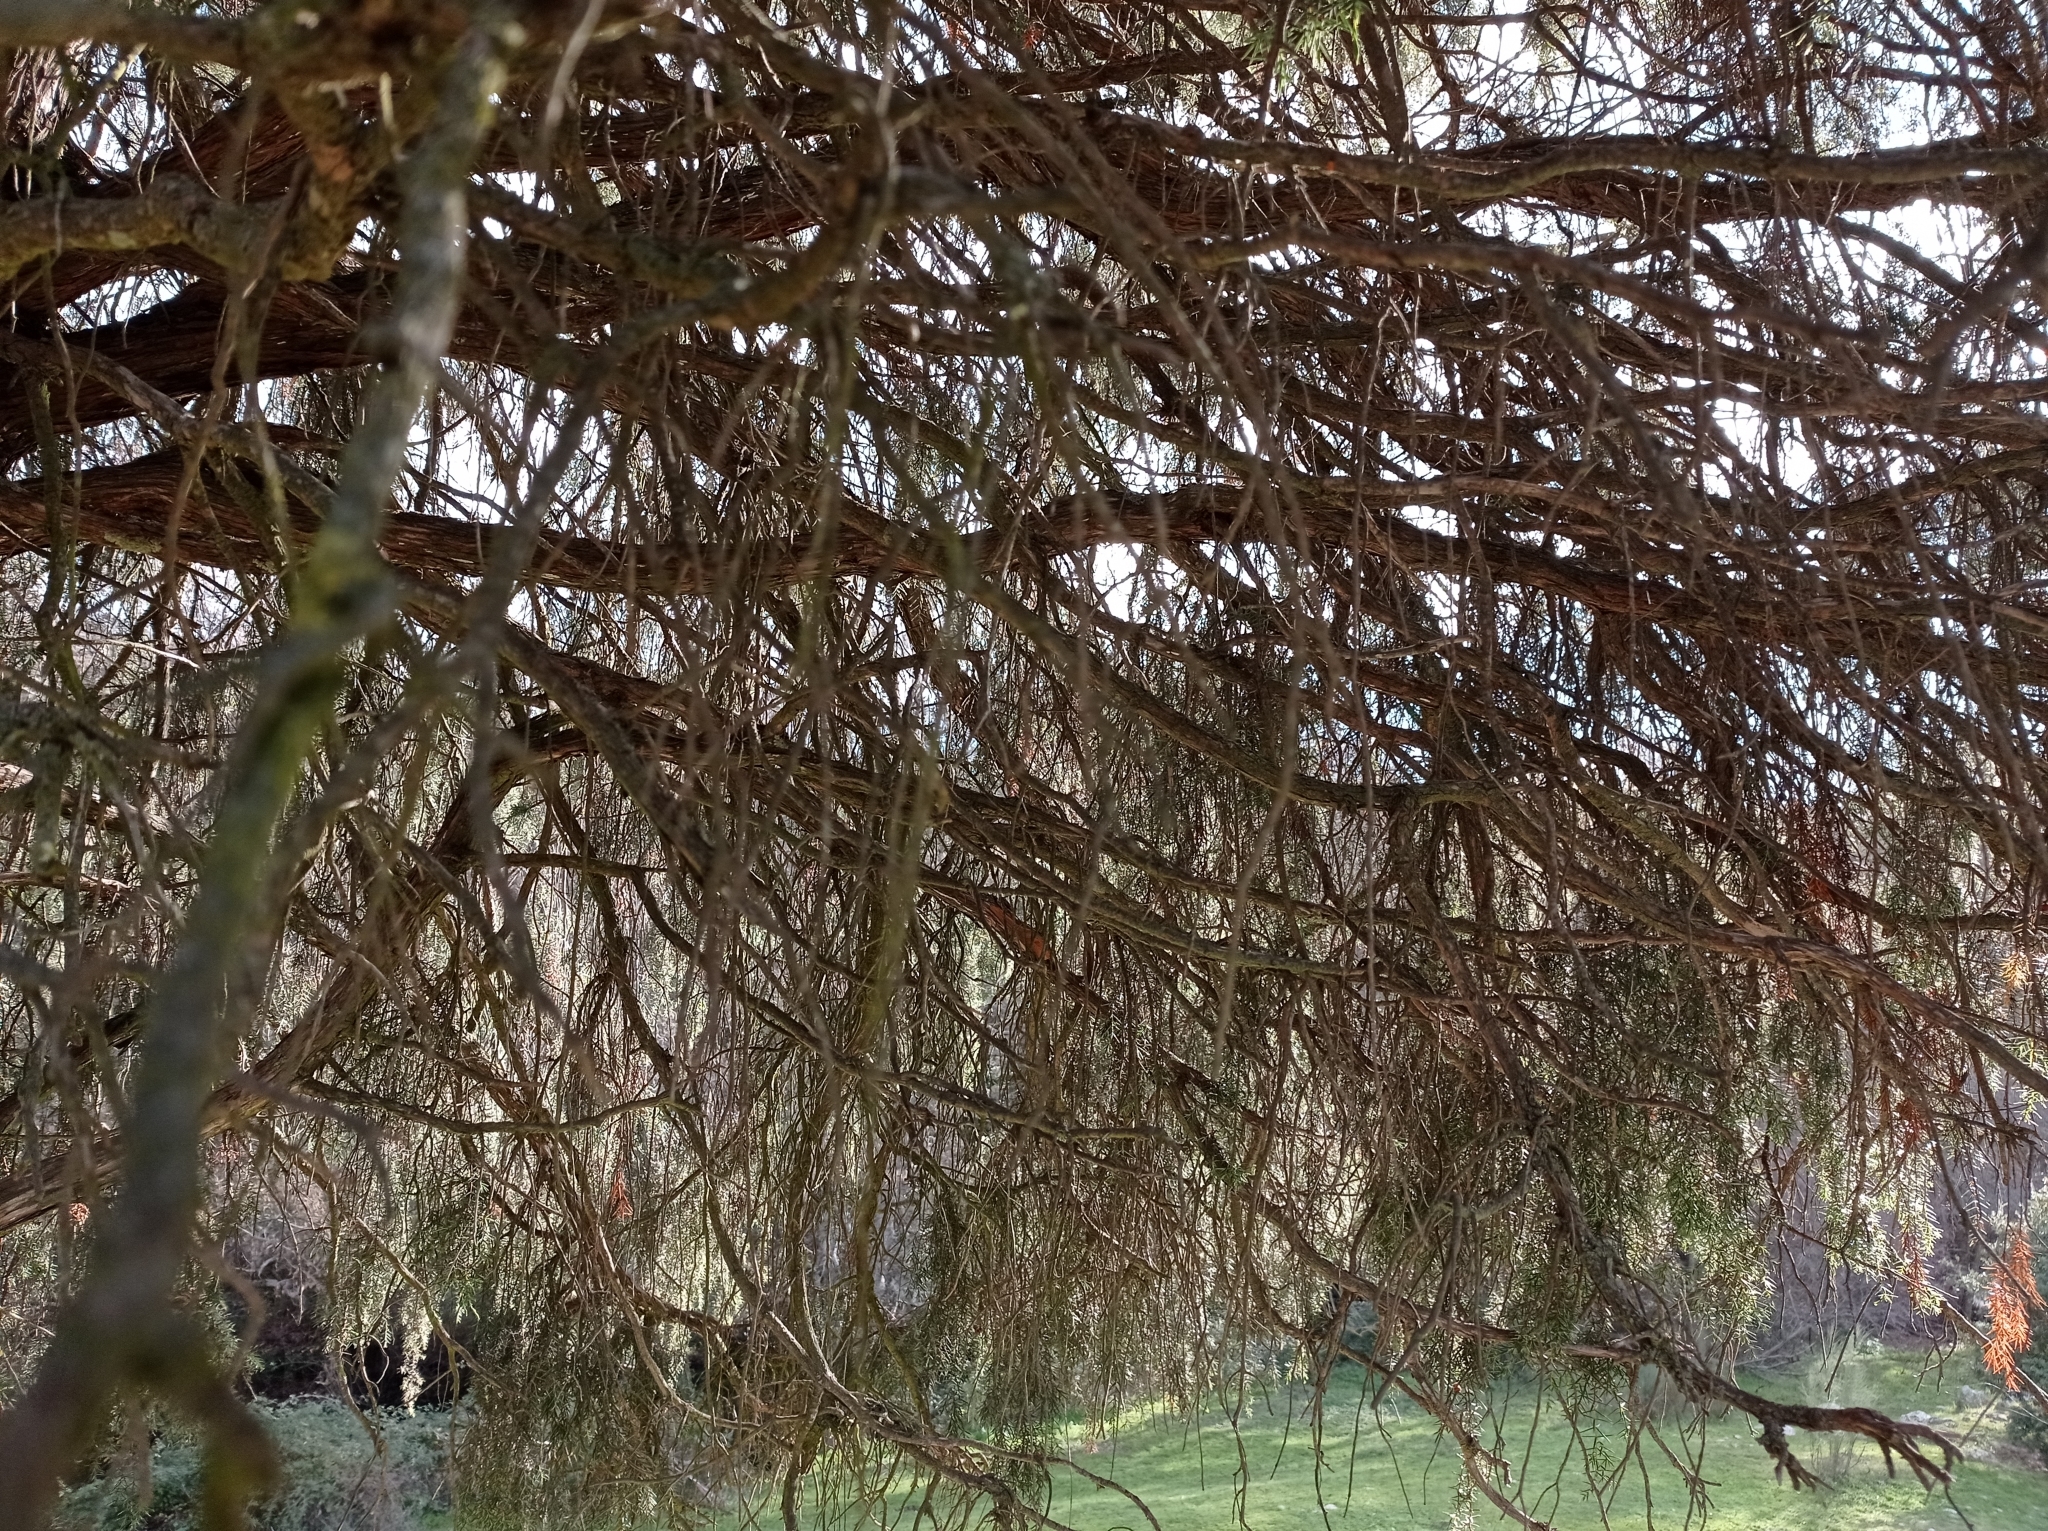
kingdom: Plantae
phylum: Tracheophyta
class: Pinopsida
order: Pinales
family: Cupressaceae
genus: Juniperus
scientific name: Juniperus oxycedrus
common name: Prickly juniper
